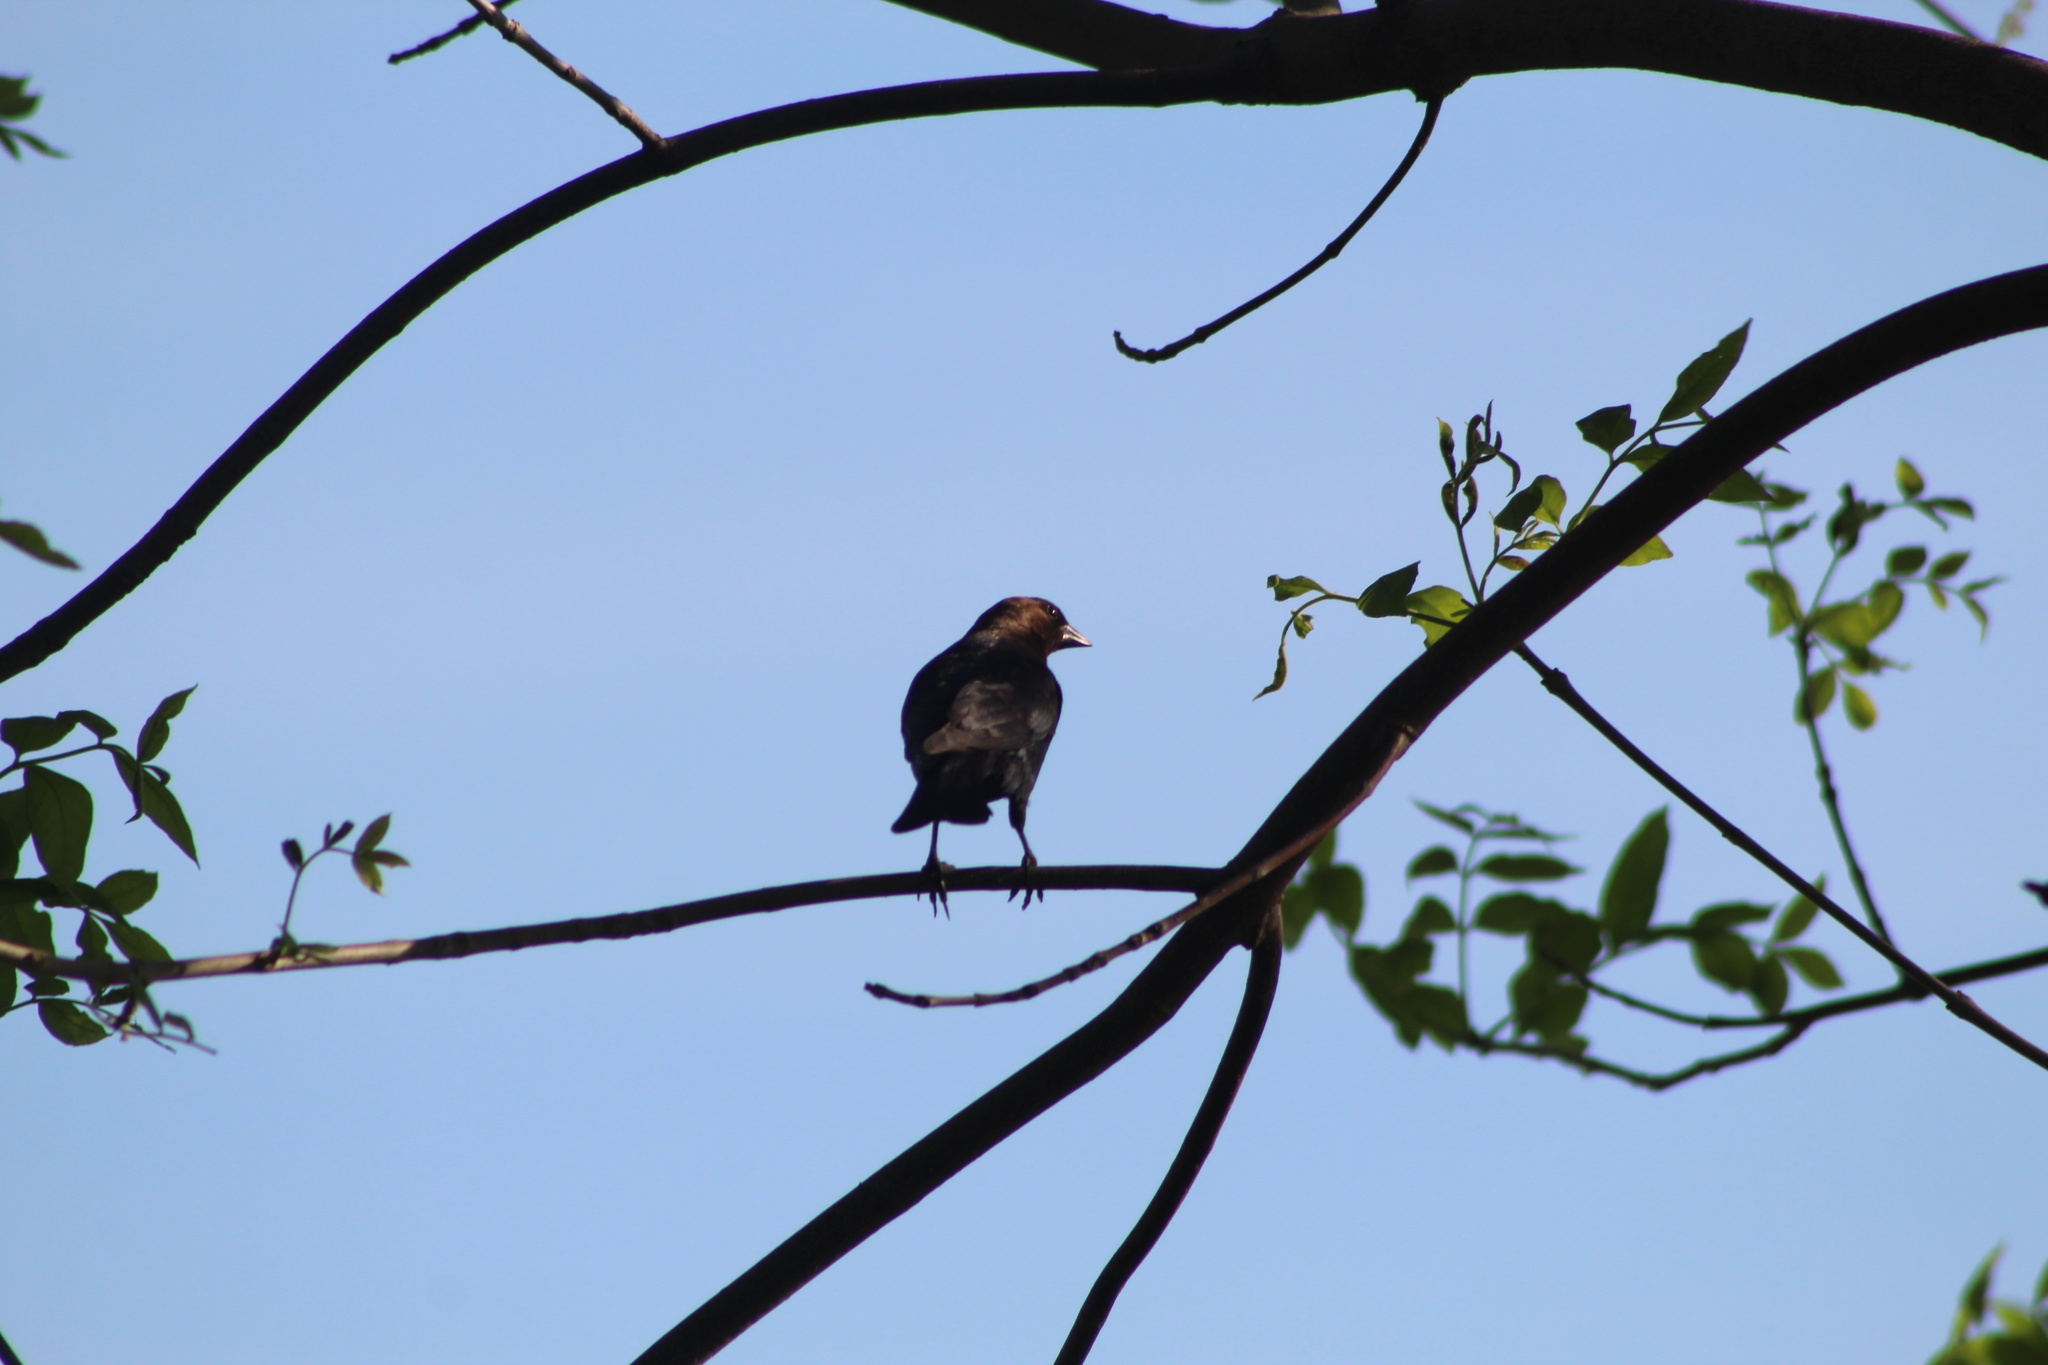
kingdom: Animalia
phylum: Chordata
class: Aves
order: Passeriformes
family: Icteridae
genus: Molothrus
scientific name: Molothrus ater
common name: Brown-headed cowbird
